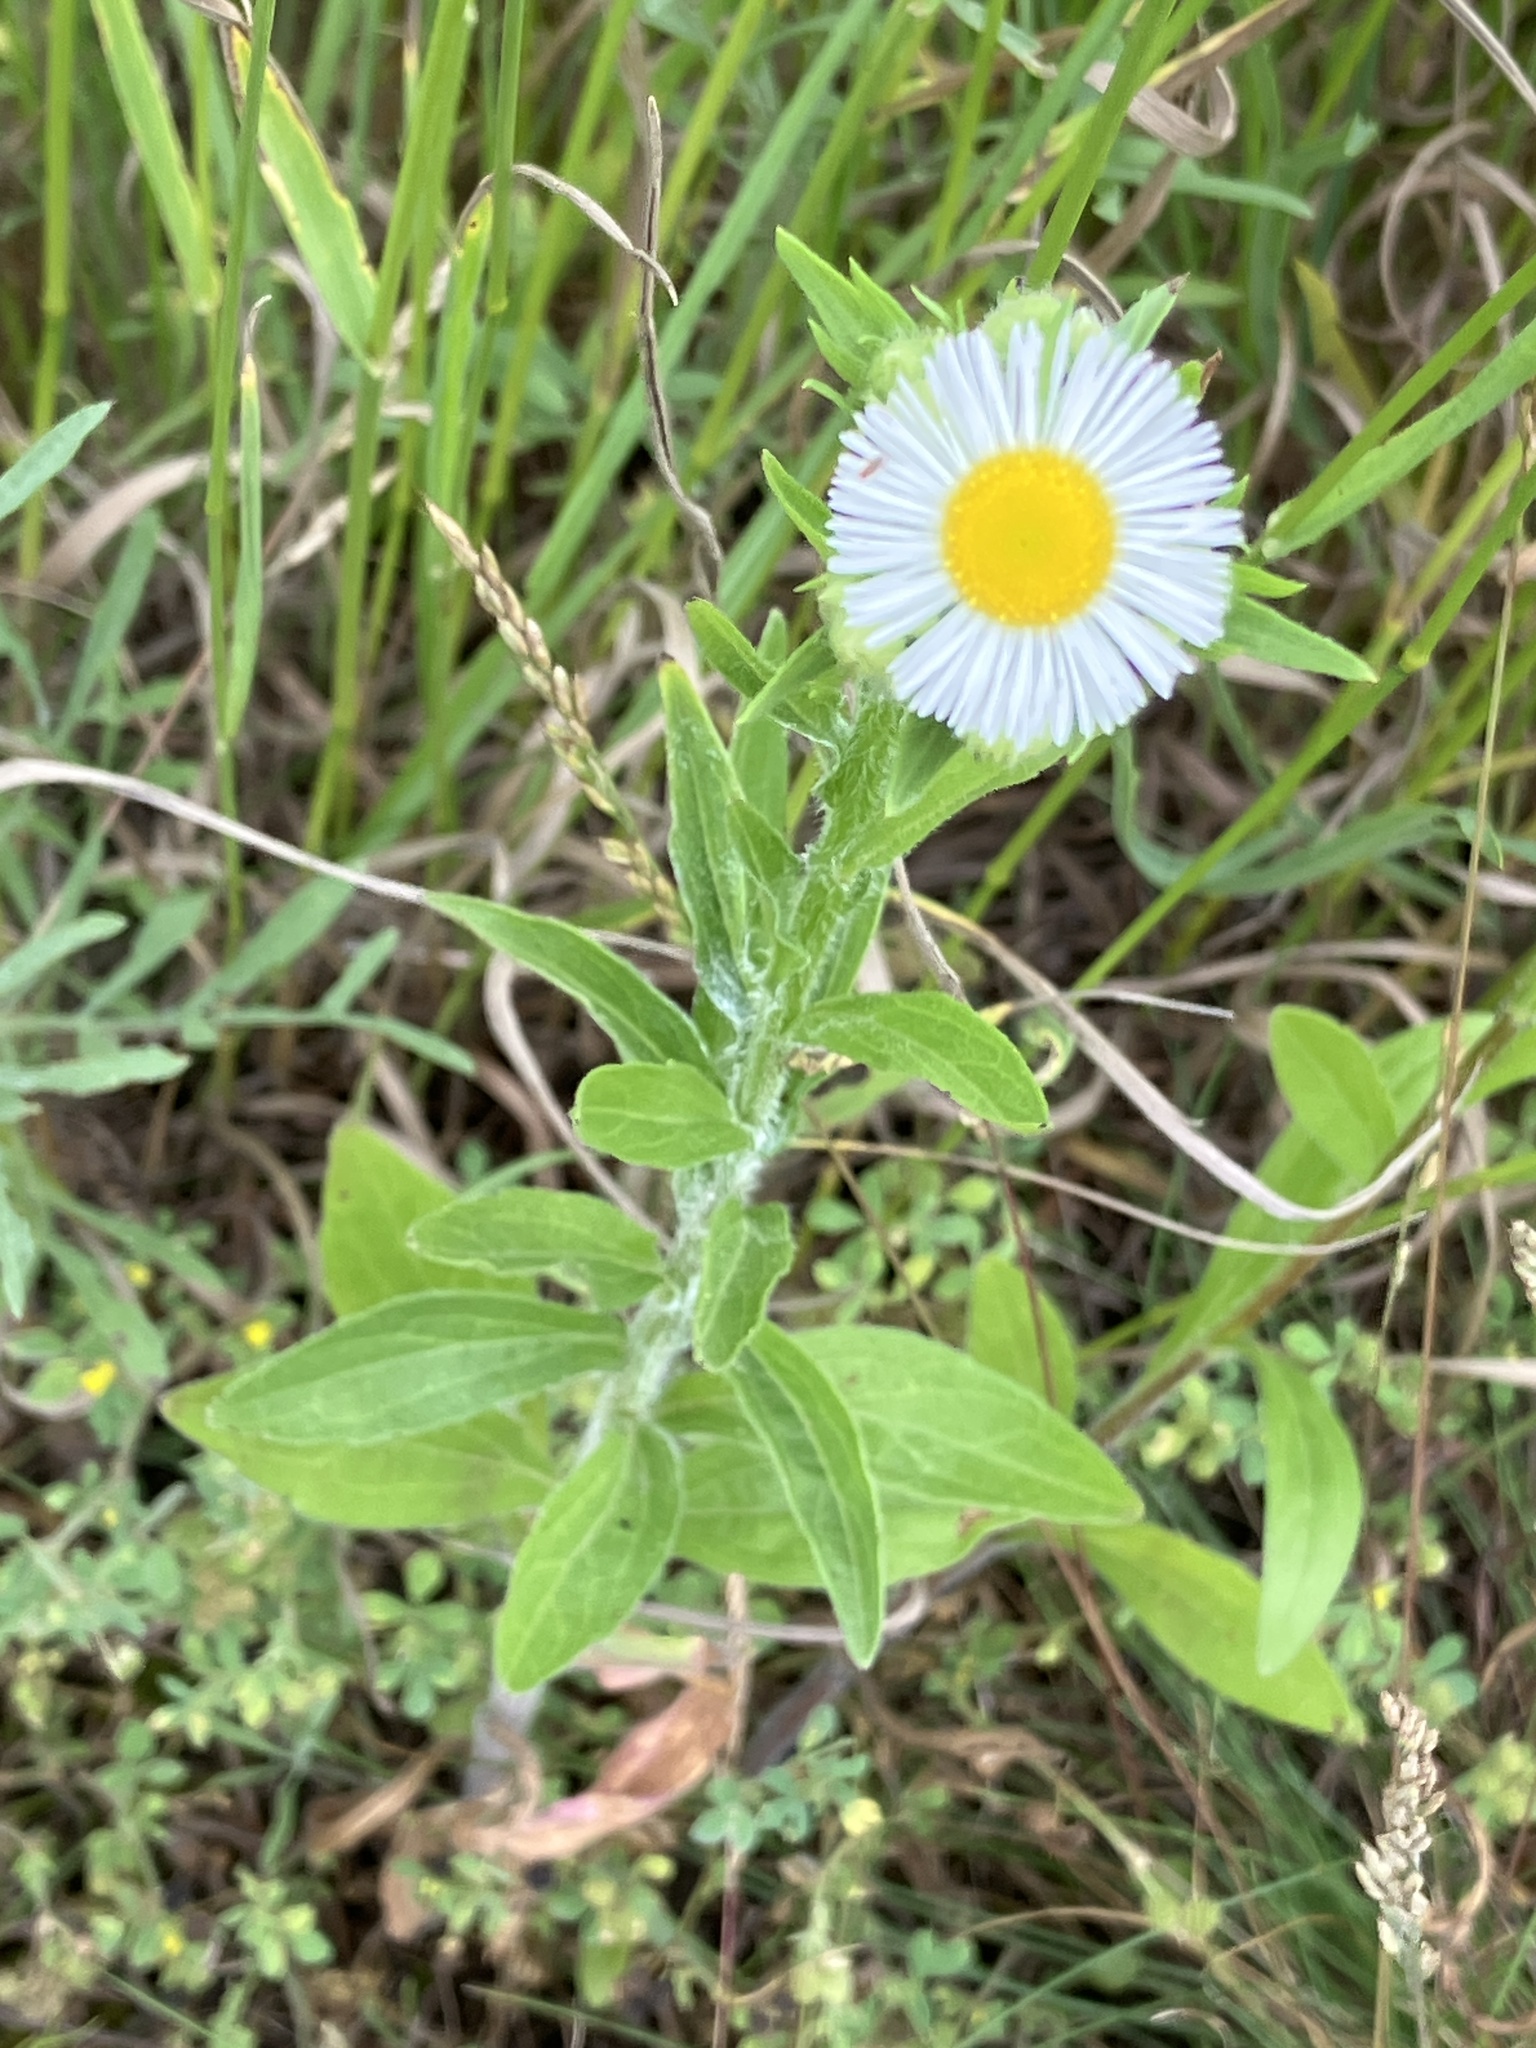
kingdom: Plantae
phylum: Tracheophyta
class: Magnoliopsida
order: Asterales
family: Asteraceae
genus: Erigeron
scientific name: Erigeron annuus
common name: Tall fleabane
